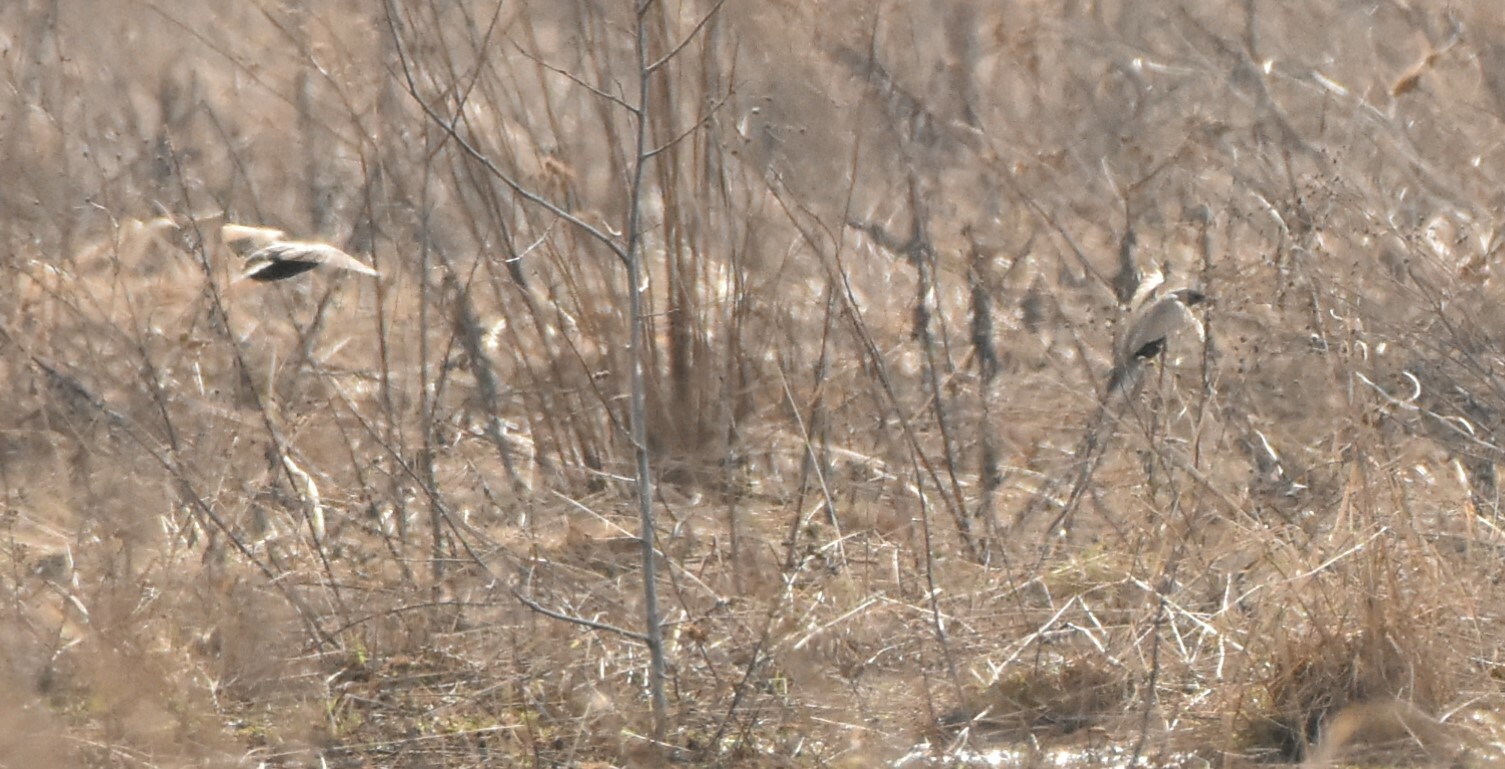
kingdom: Animalia
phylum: Chordata
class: Aves
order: Passeriformes
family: Sturnidae
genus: Sturnus
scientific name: Sturnus vulgaris
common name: Common starling
